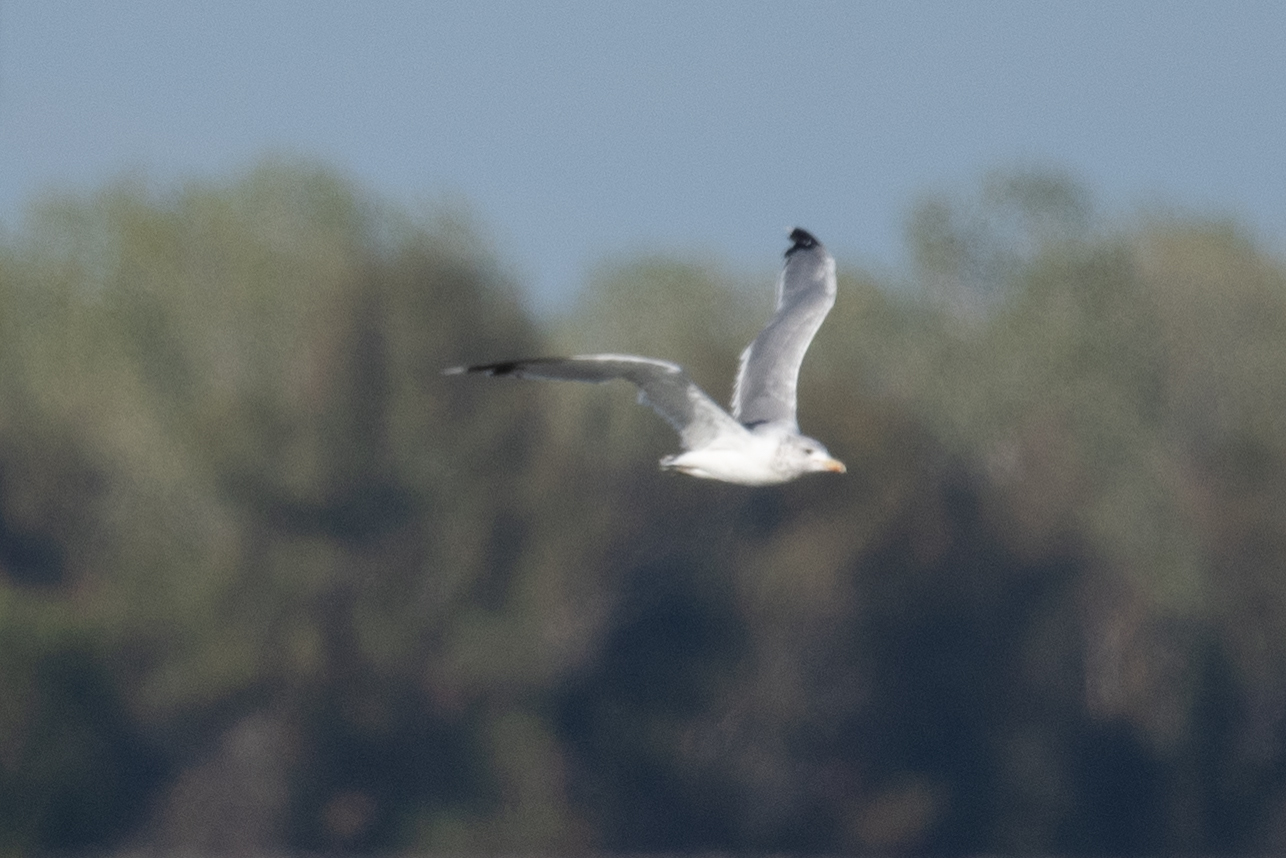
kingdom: Animalia
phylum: Chordata
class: Aves
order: Charadriiformes
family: Laridae
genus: Larus
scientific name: Larus californicus
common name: California gull
